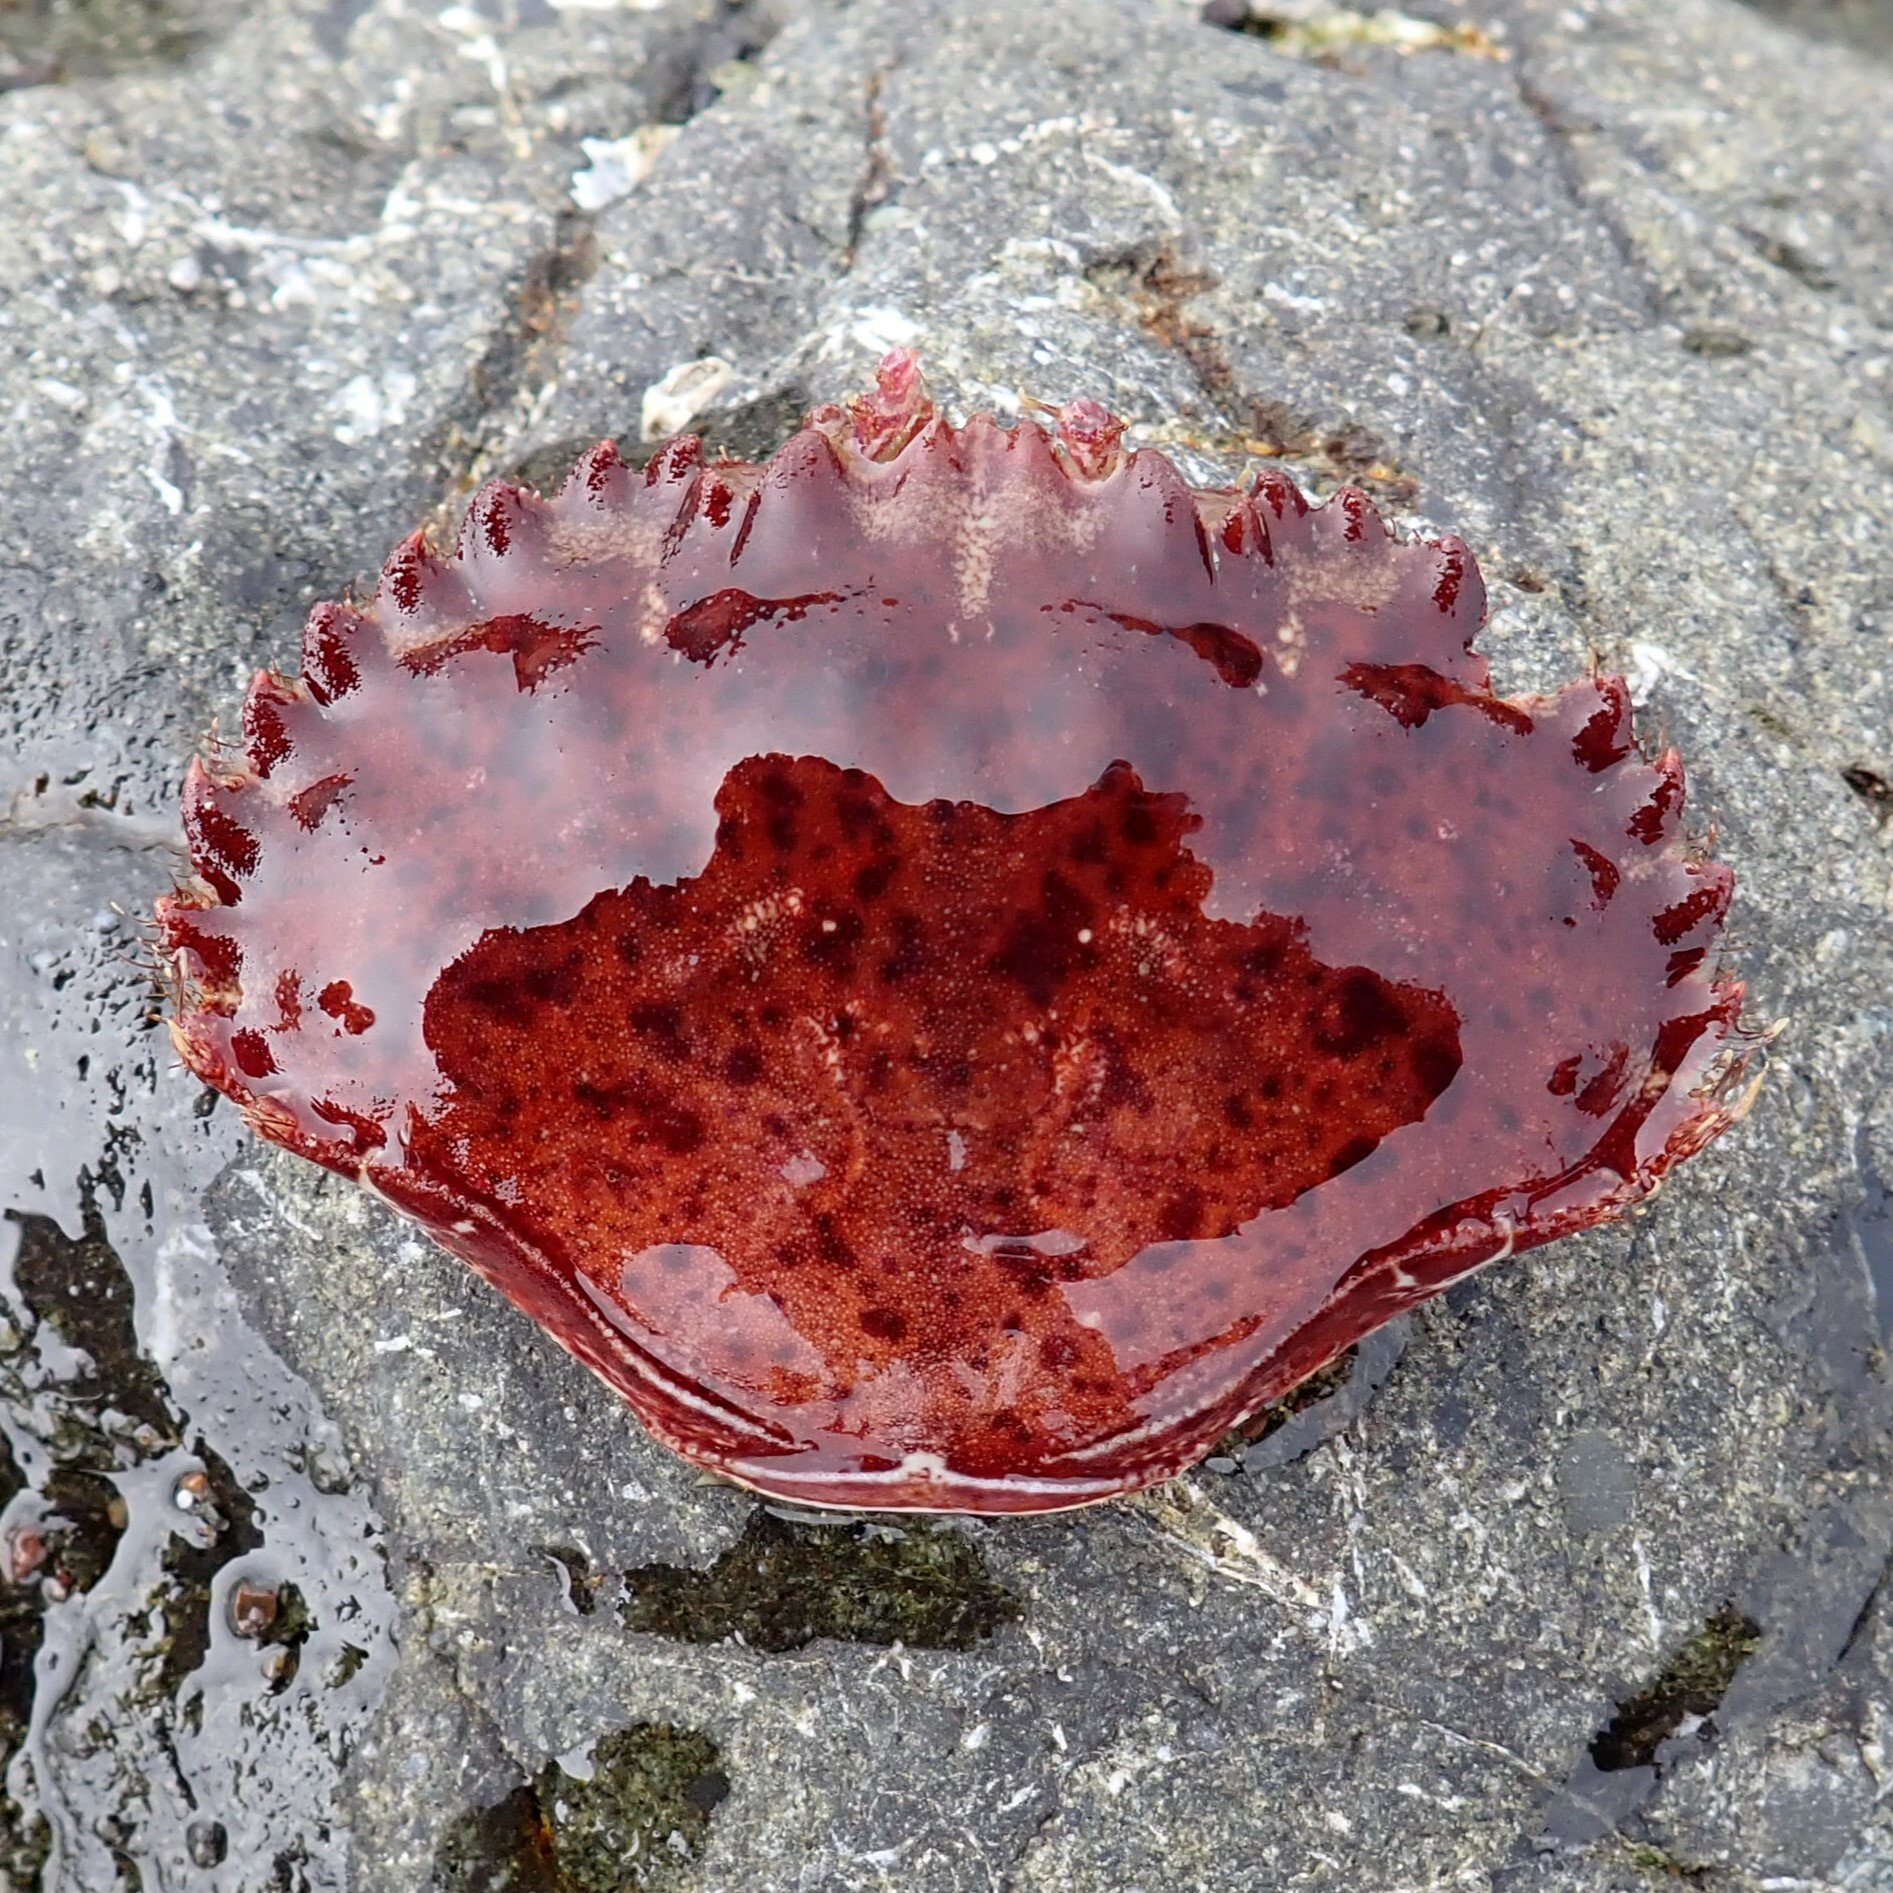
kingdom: Animalia
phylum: Arthropoda
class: Malacostraca
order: Decapoda
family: Cancridae
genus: Romaleon
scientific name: Romaleon antennarium
